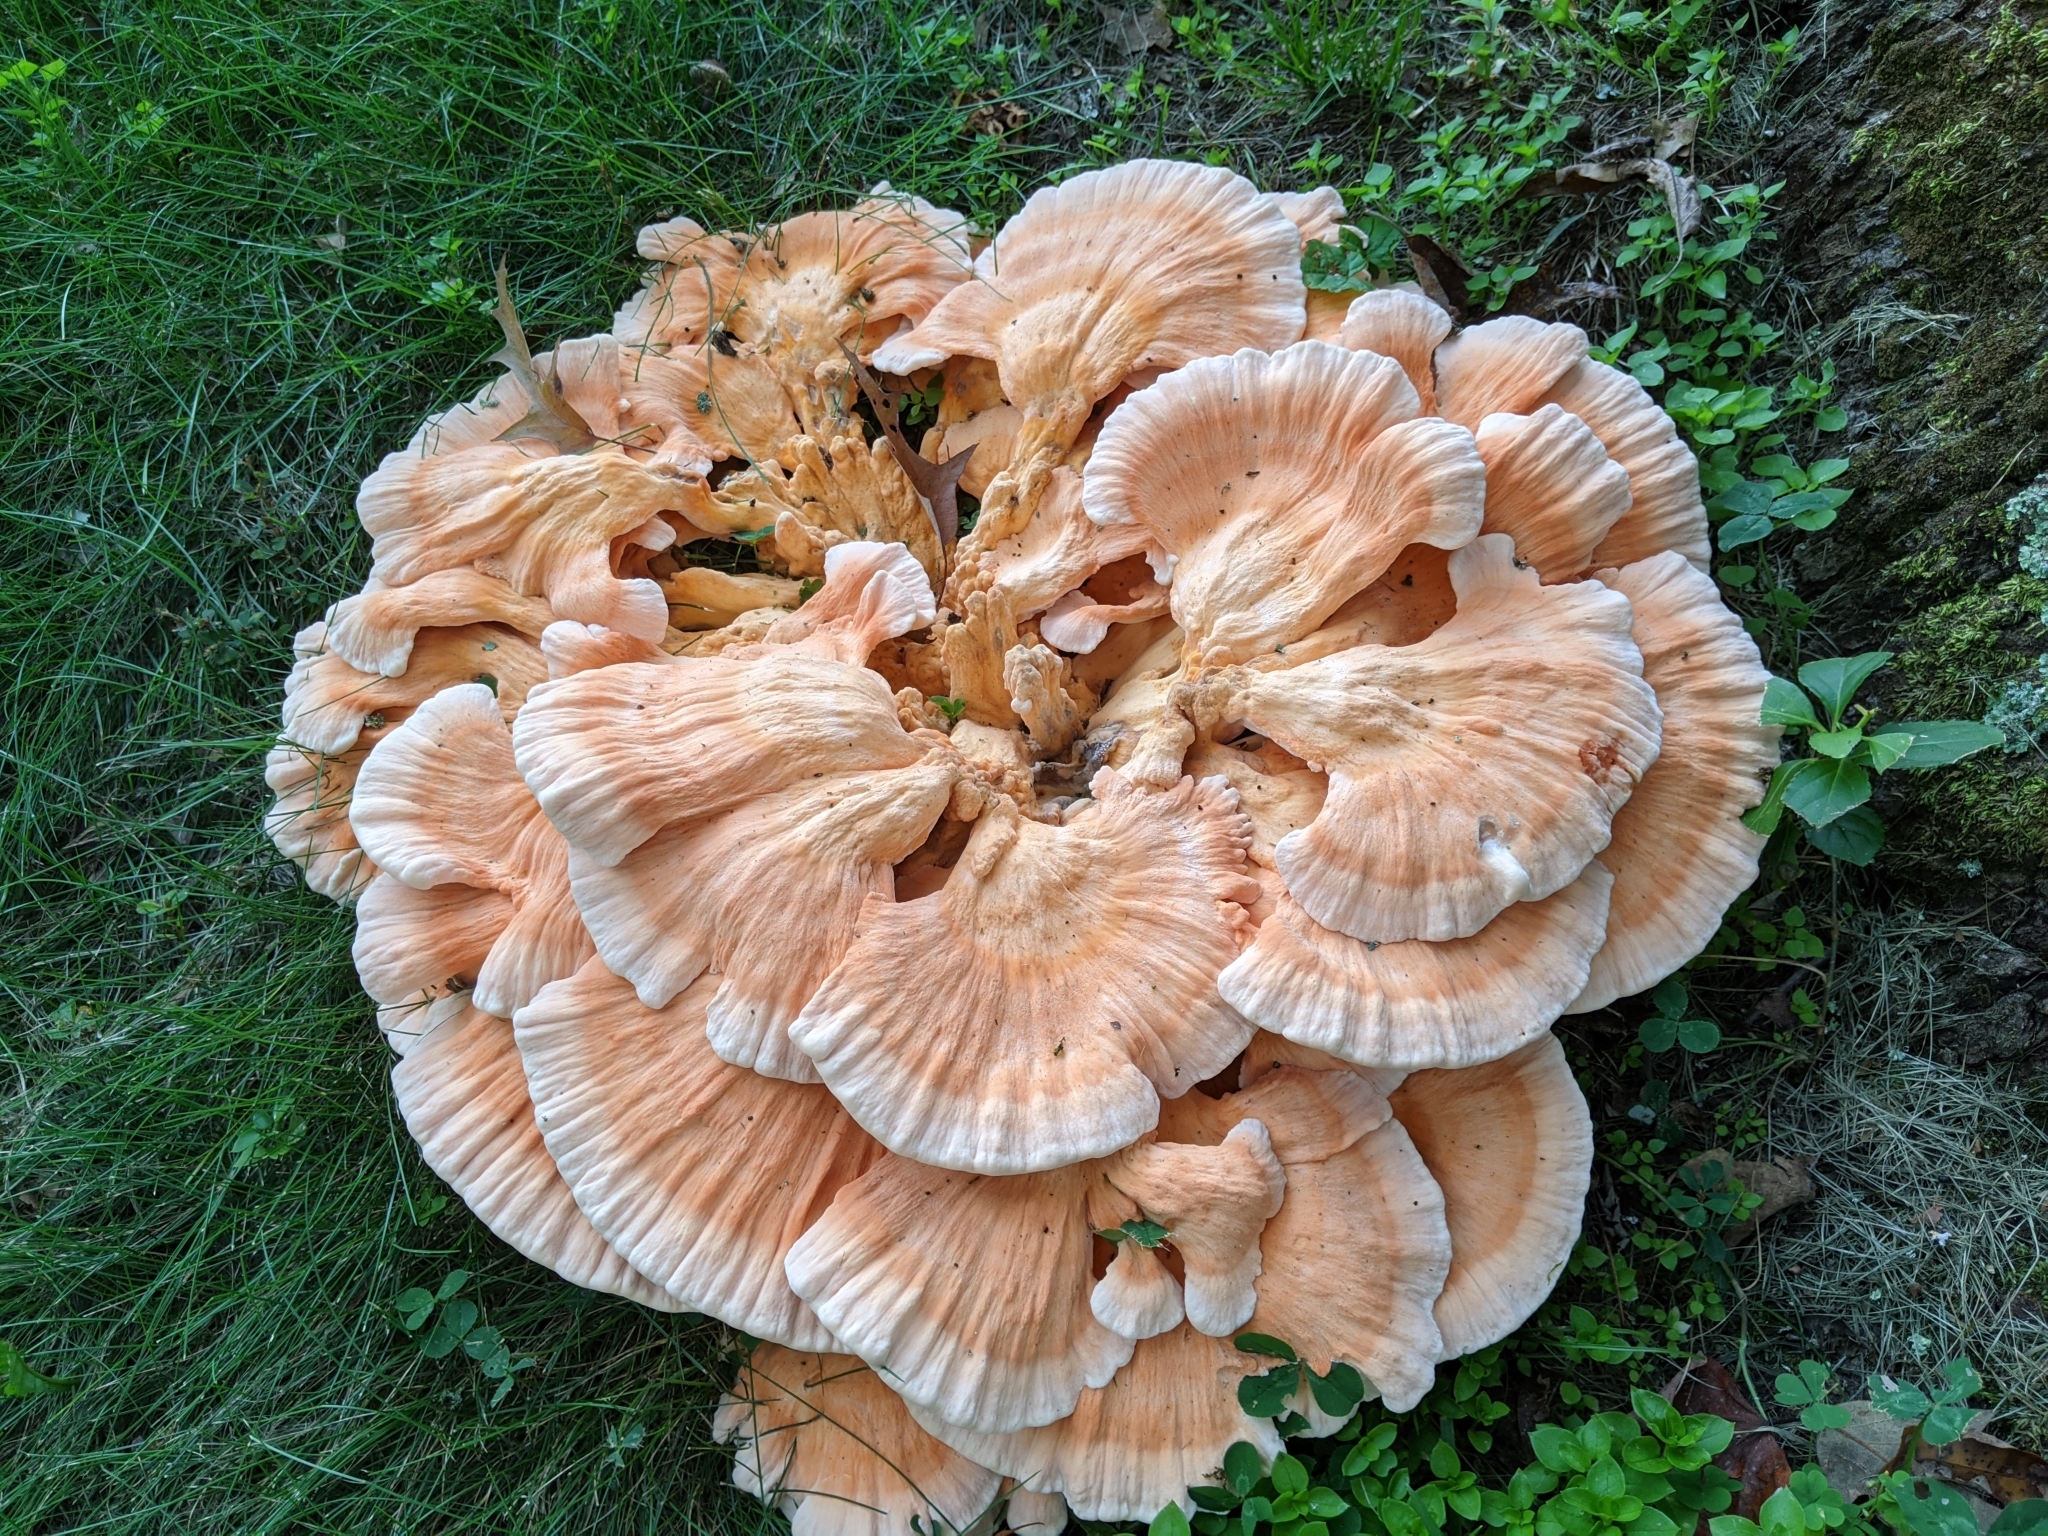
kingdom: Fungi
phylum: Basidiomycota
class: Agaricomycetes
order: Polyporales
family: Laetiporaceae
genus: Laetiporus
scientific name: Laetiporus sulphureus
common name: Chicken of the woods
